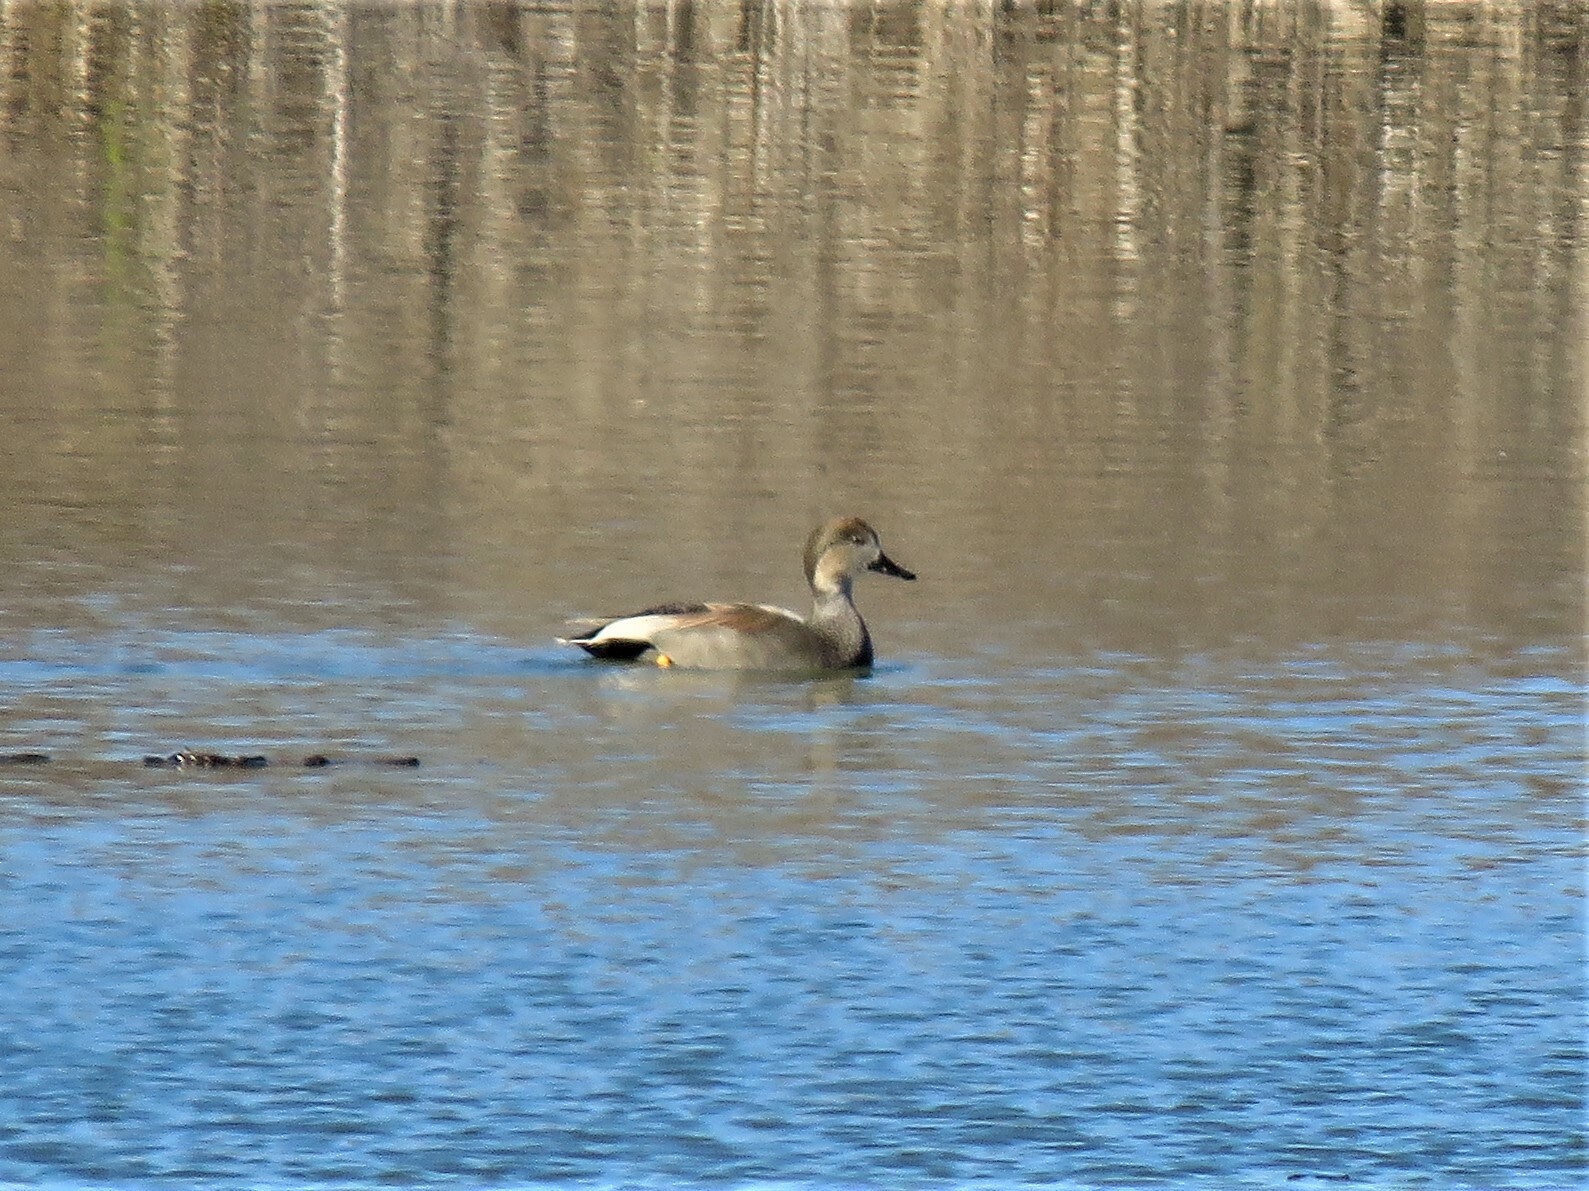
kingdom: Animalia
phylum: Chordata
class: Aves
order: Anseriformes
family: Anatidae
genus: Mareca
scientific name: Mareca strepera
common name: Gadwall
